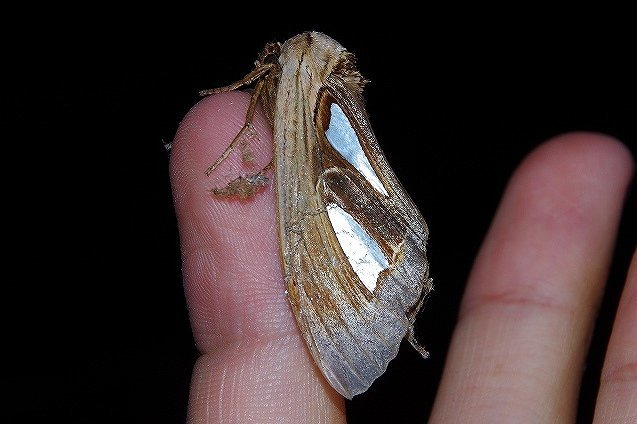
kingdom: Animalia
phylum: Arthropoda
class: Insecta
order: Lepidoptera
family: Notodontidae
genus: Tarsolepis
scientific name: Tarsolepis japonica
